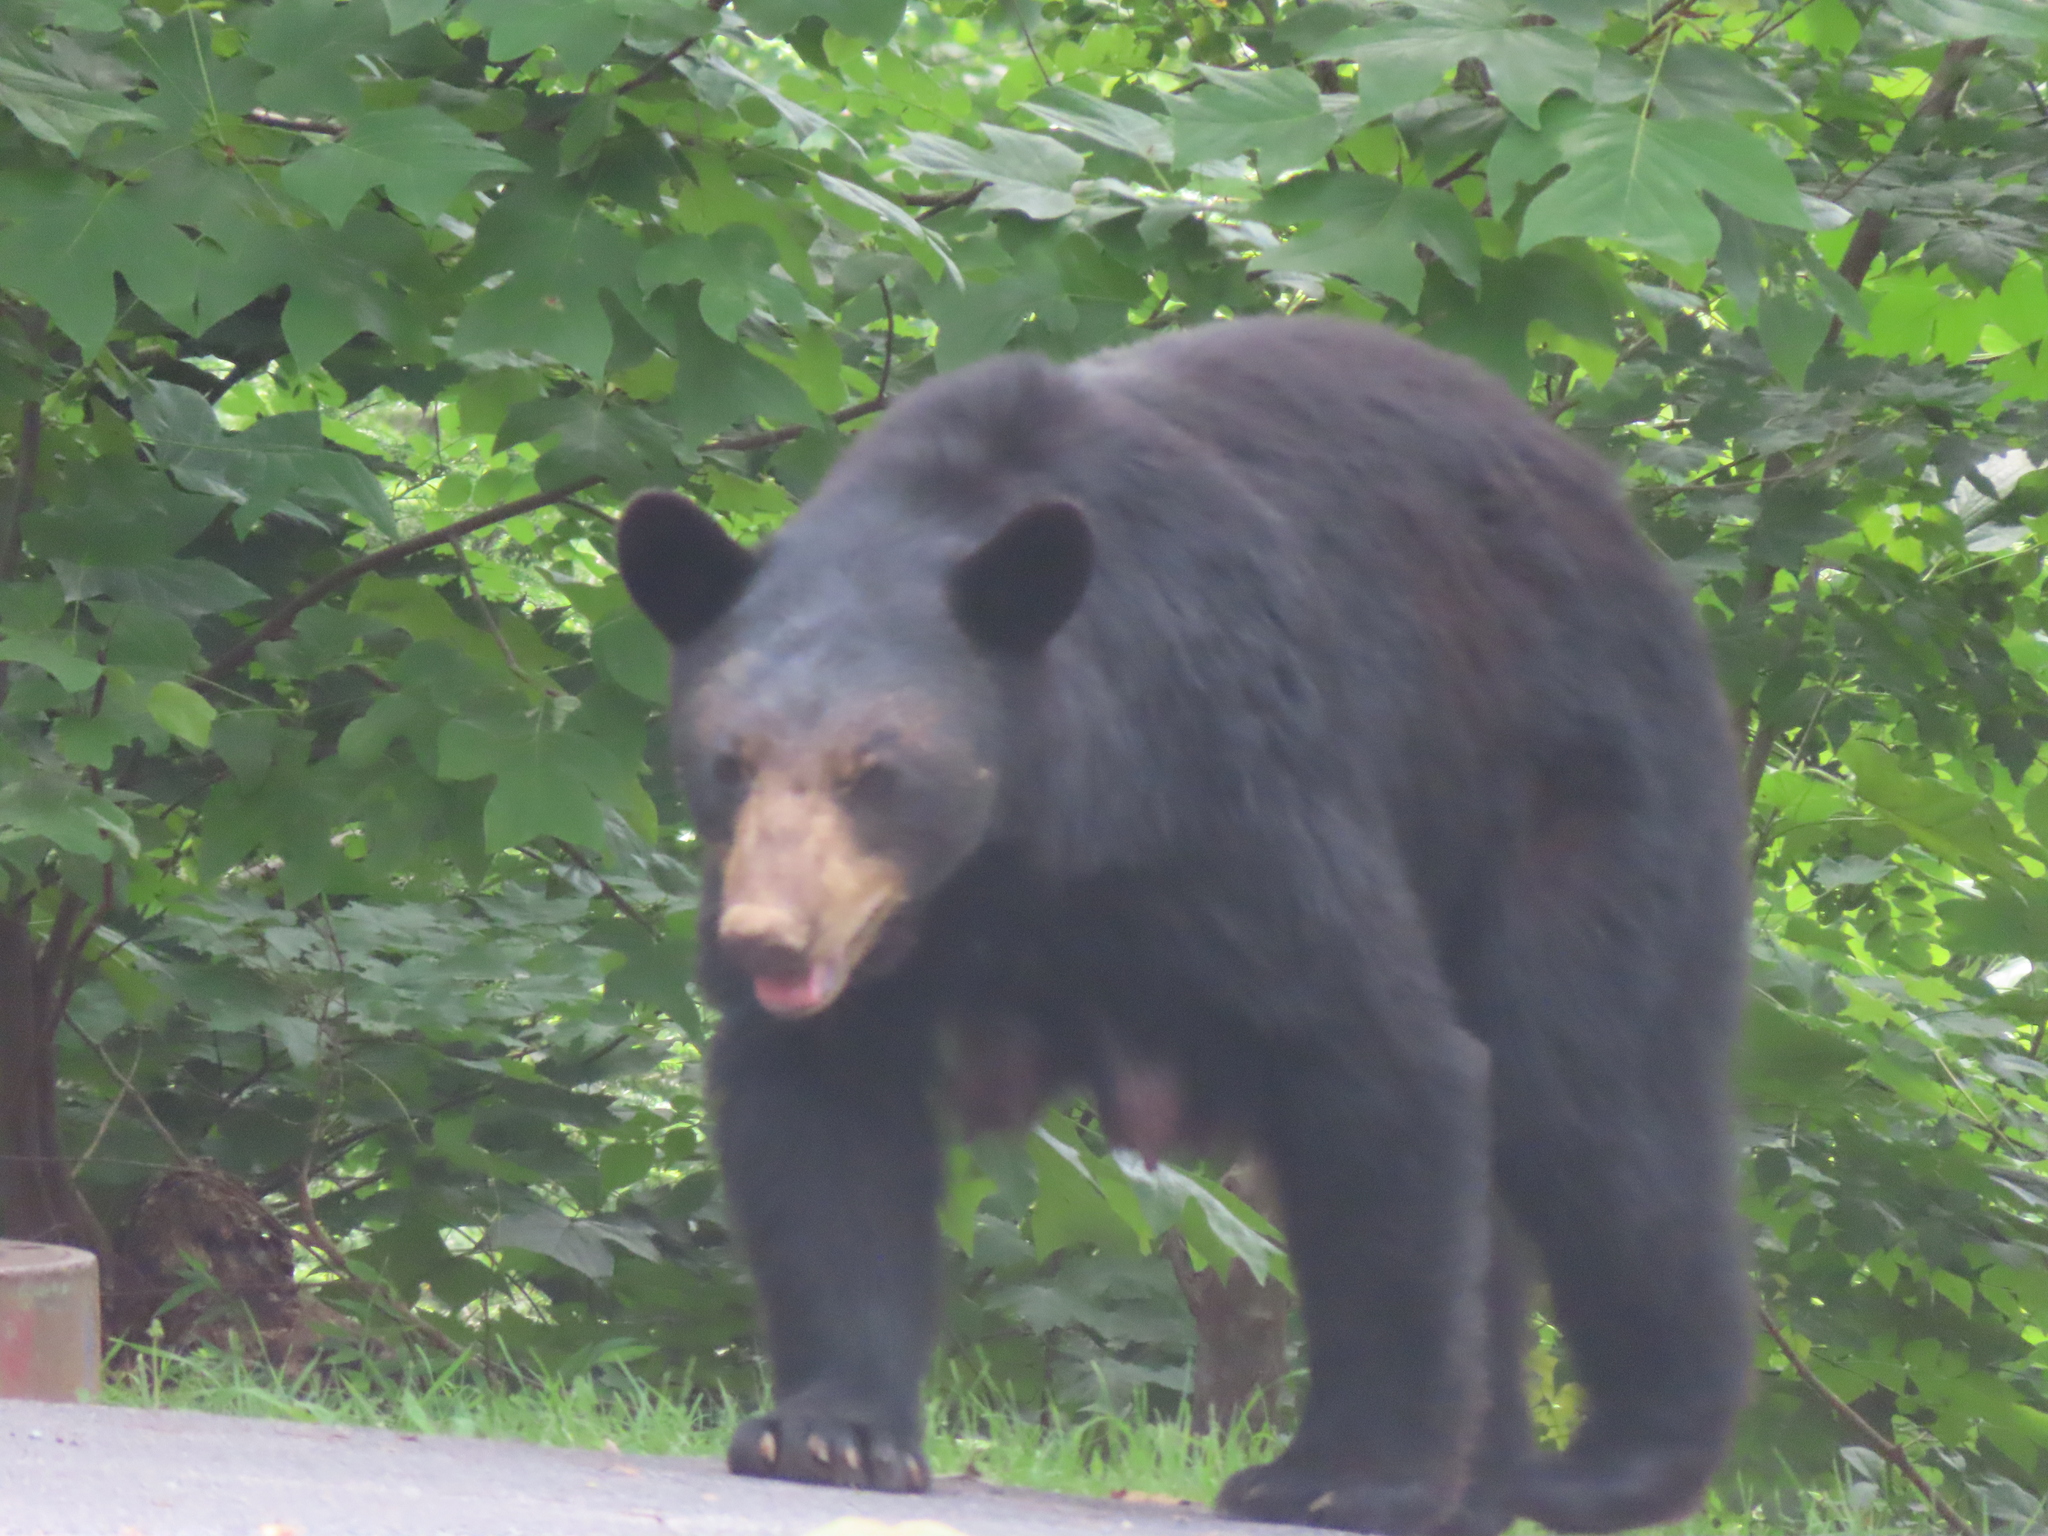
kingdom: Animalia
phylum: Chordata
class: Mammalia
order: Carnivora
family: Ursidae
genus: Ursus
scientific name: Ursus americanus
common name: American black bear
